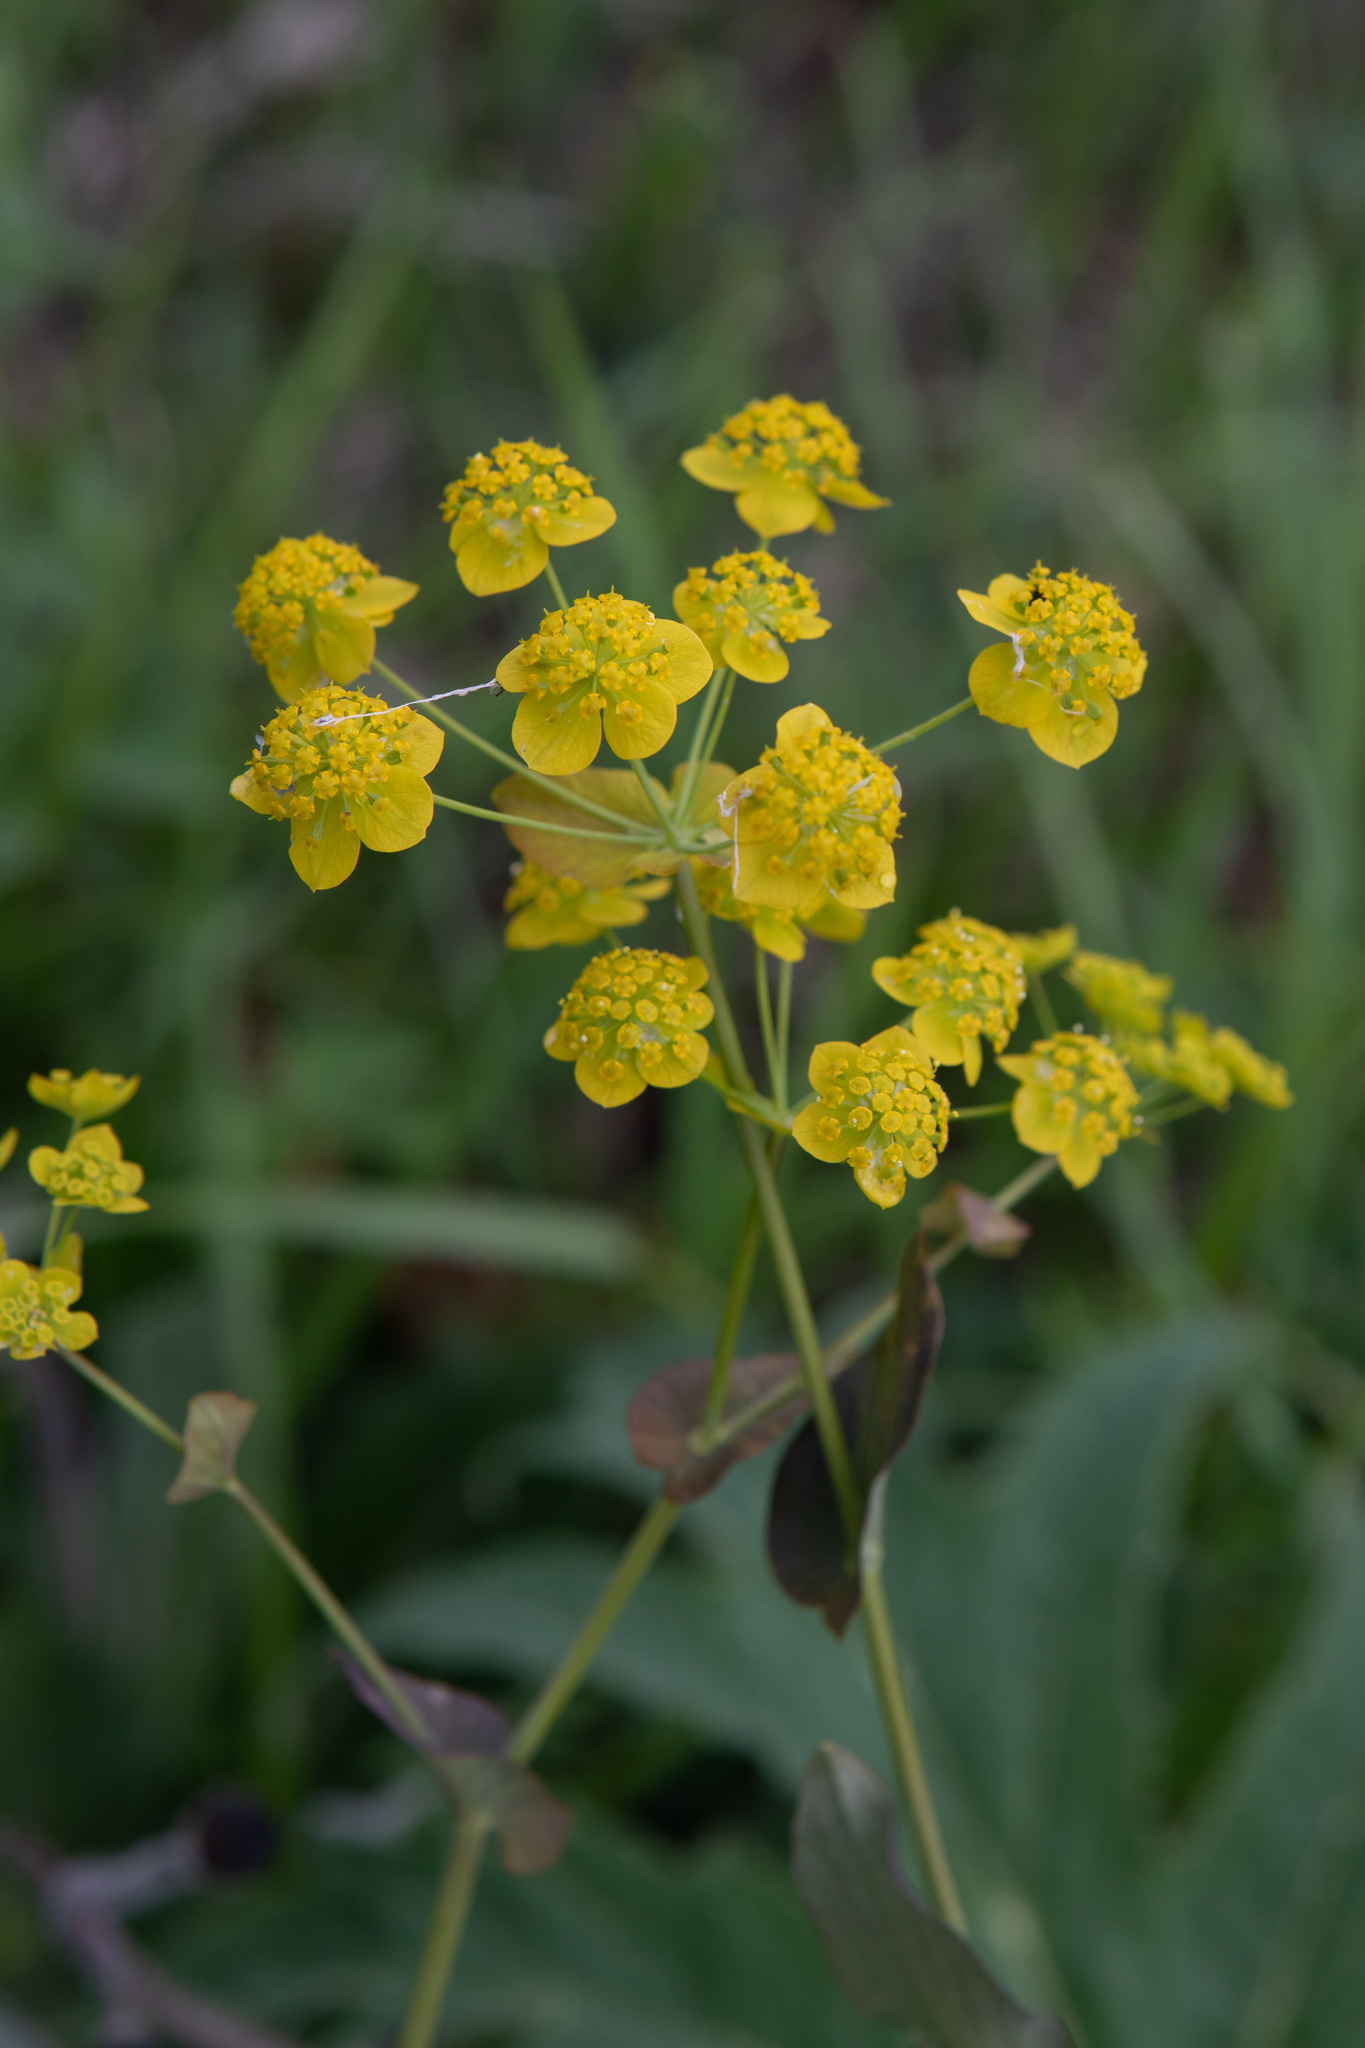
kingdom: Plantae
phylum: Tracheophyta
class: Magnoliopsida
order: Apiales
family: Apiaceae
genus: Bupleurum
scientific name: Bupleurum aureum
